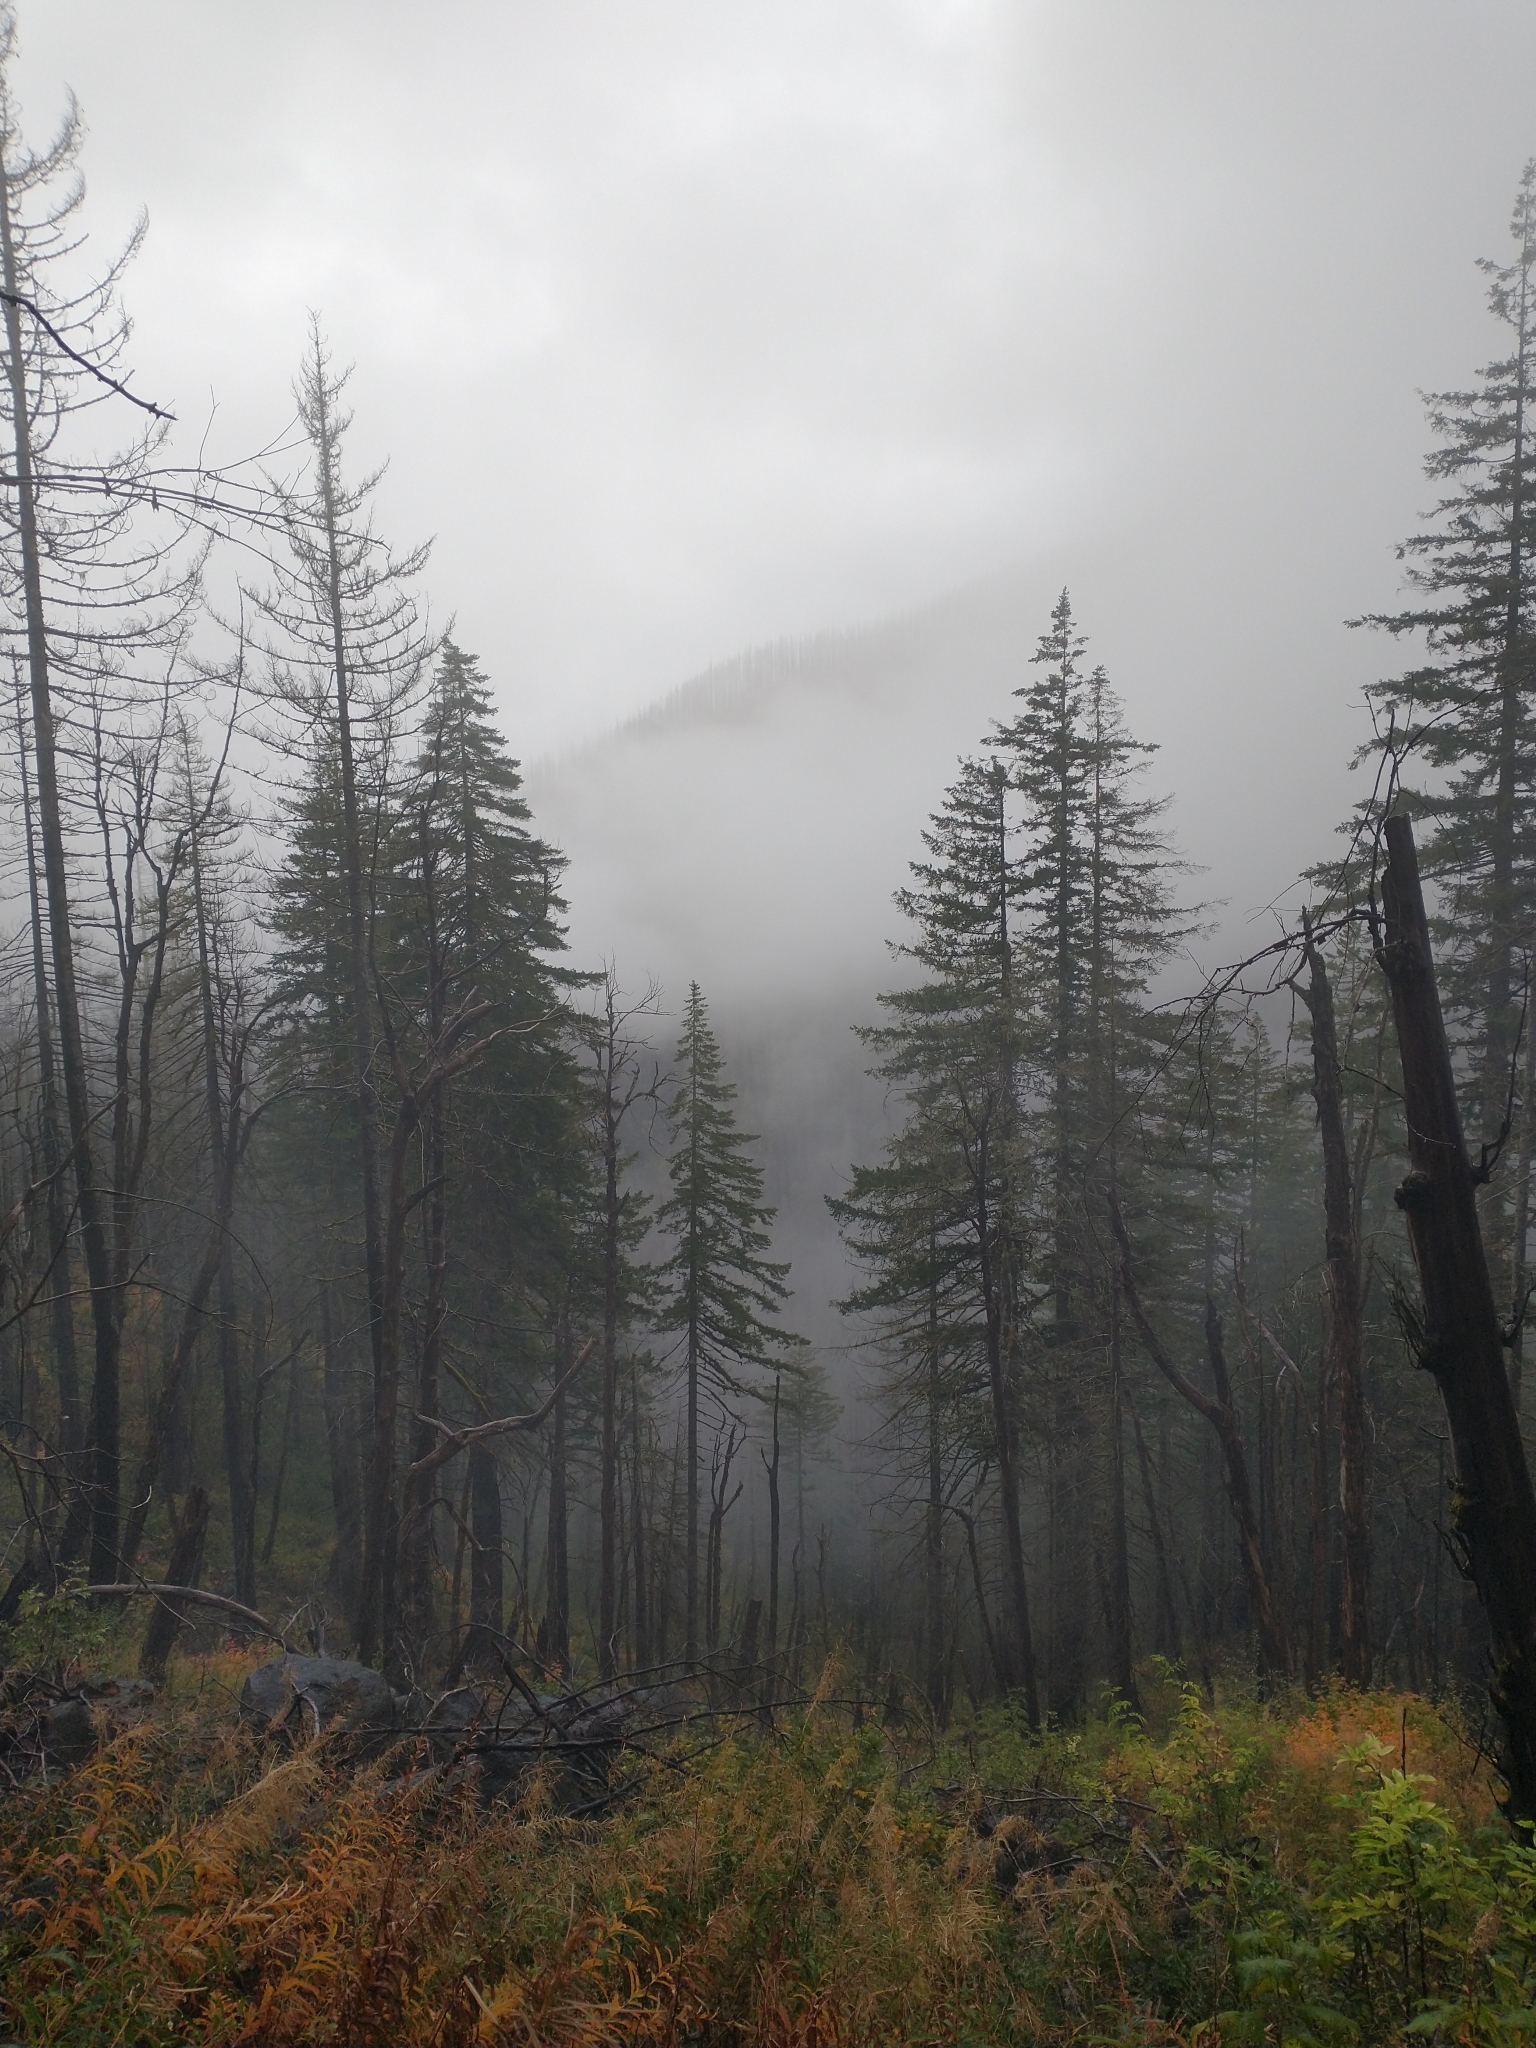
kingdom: Plantae
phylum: Tracheophyta
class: Pinopsida
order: Pinales
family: Pinaceae
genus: Pseudotsuga
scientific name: Pseudotsuga menziesii
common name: Douglas fir
